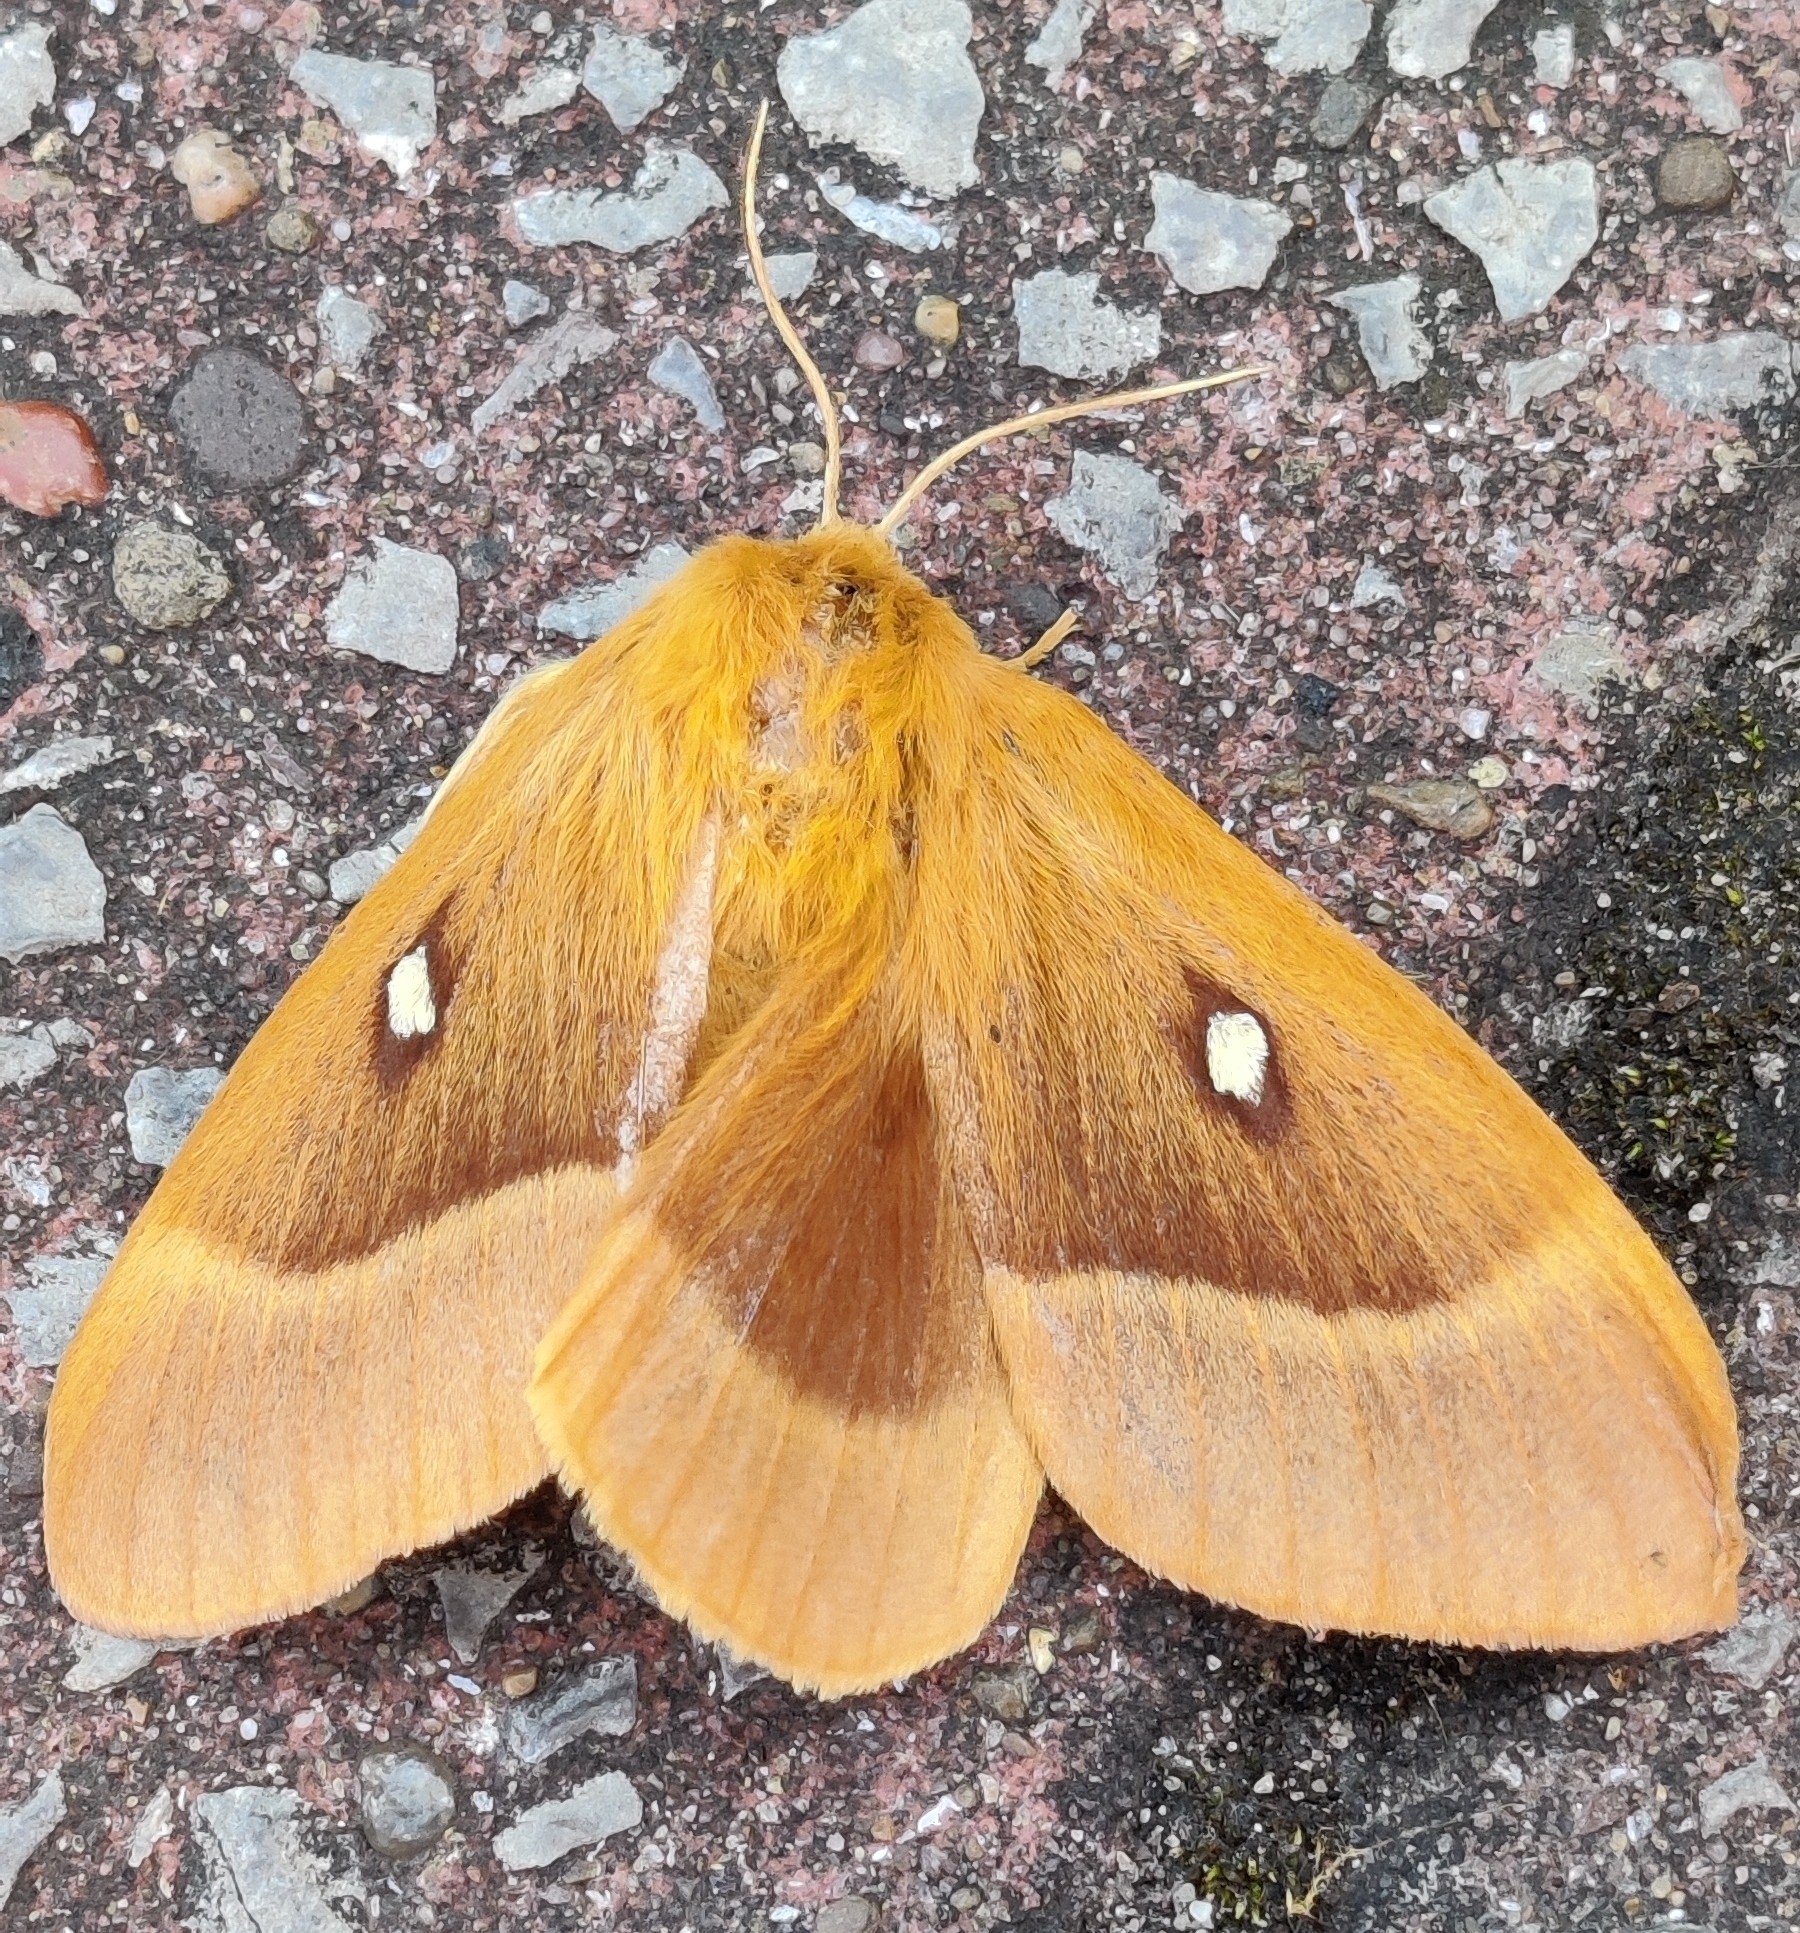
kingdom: Animalia
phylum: Arthropoda
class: Insecta
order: Lepidoptera
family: Lasiocampidae
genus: Lasiocampa
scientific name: Lasiocampa quercus
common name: Oak eggar
